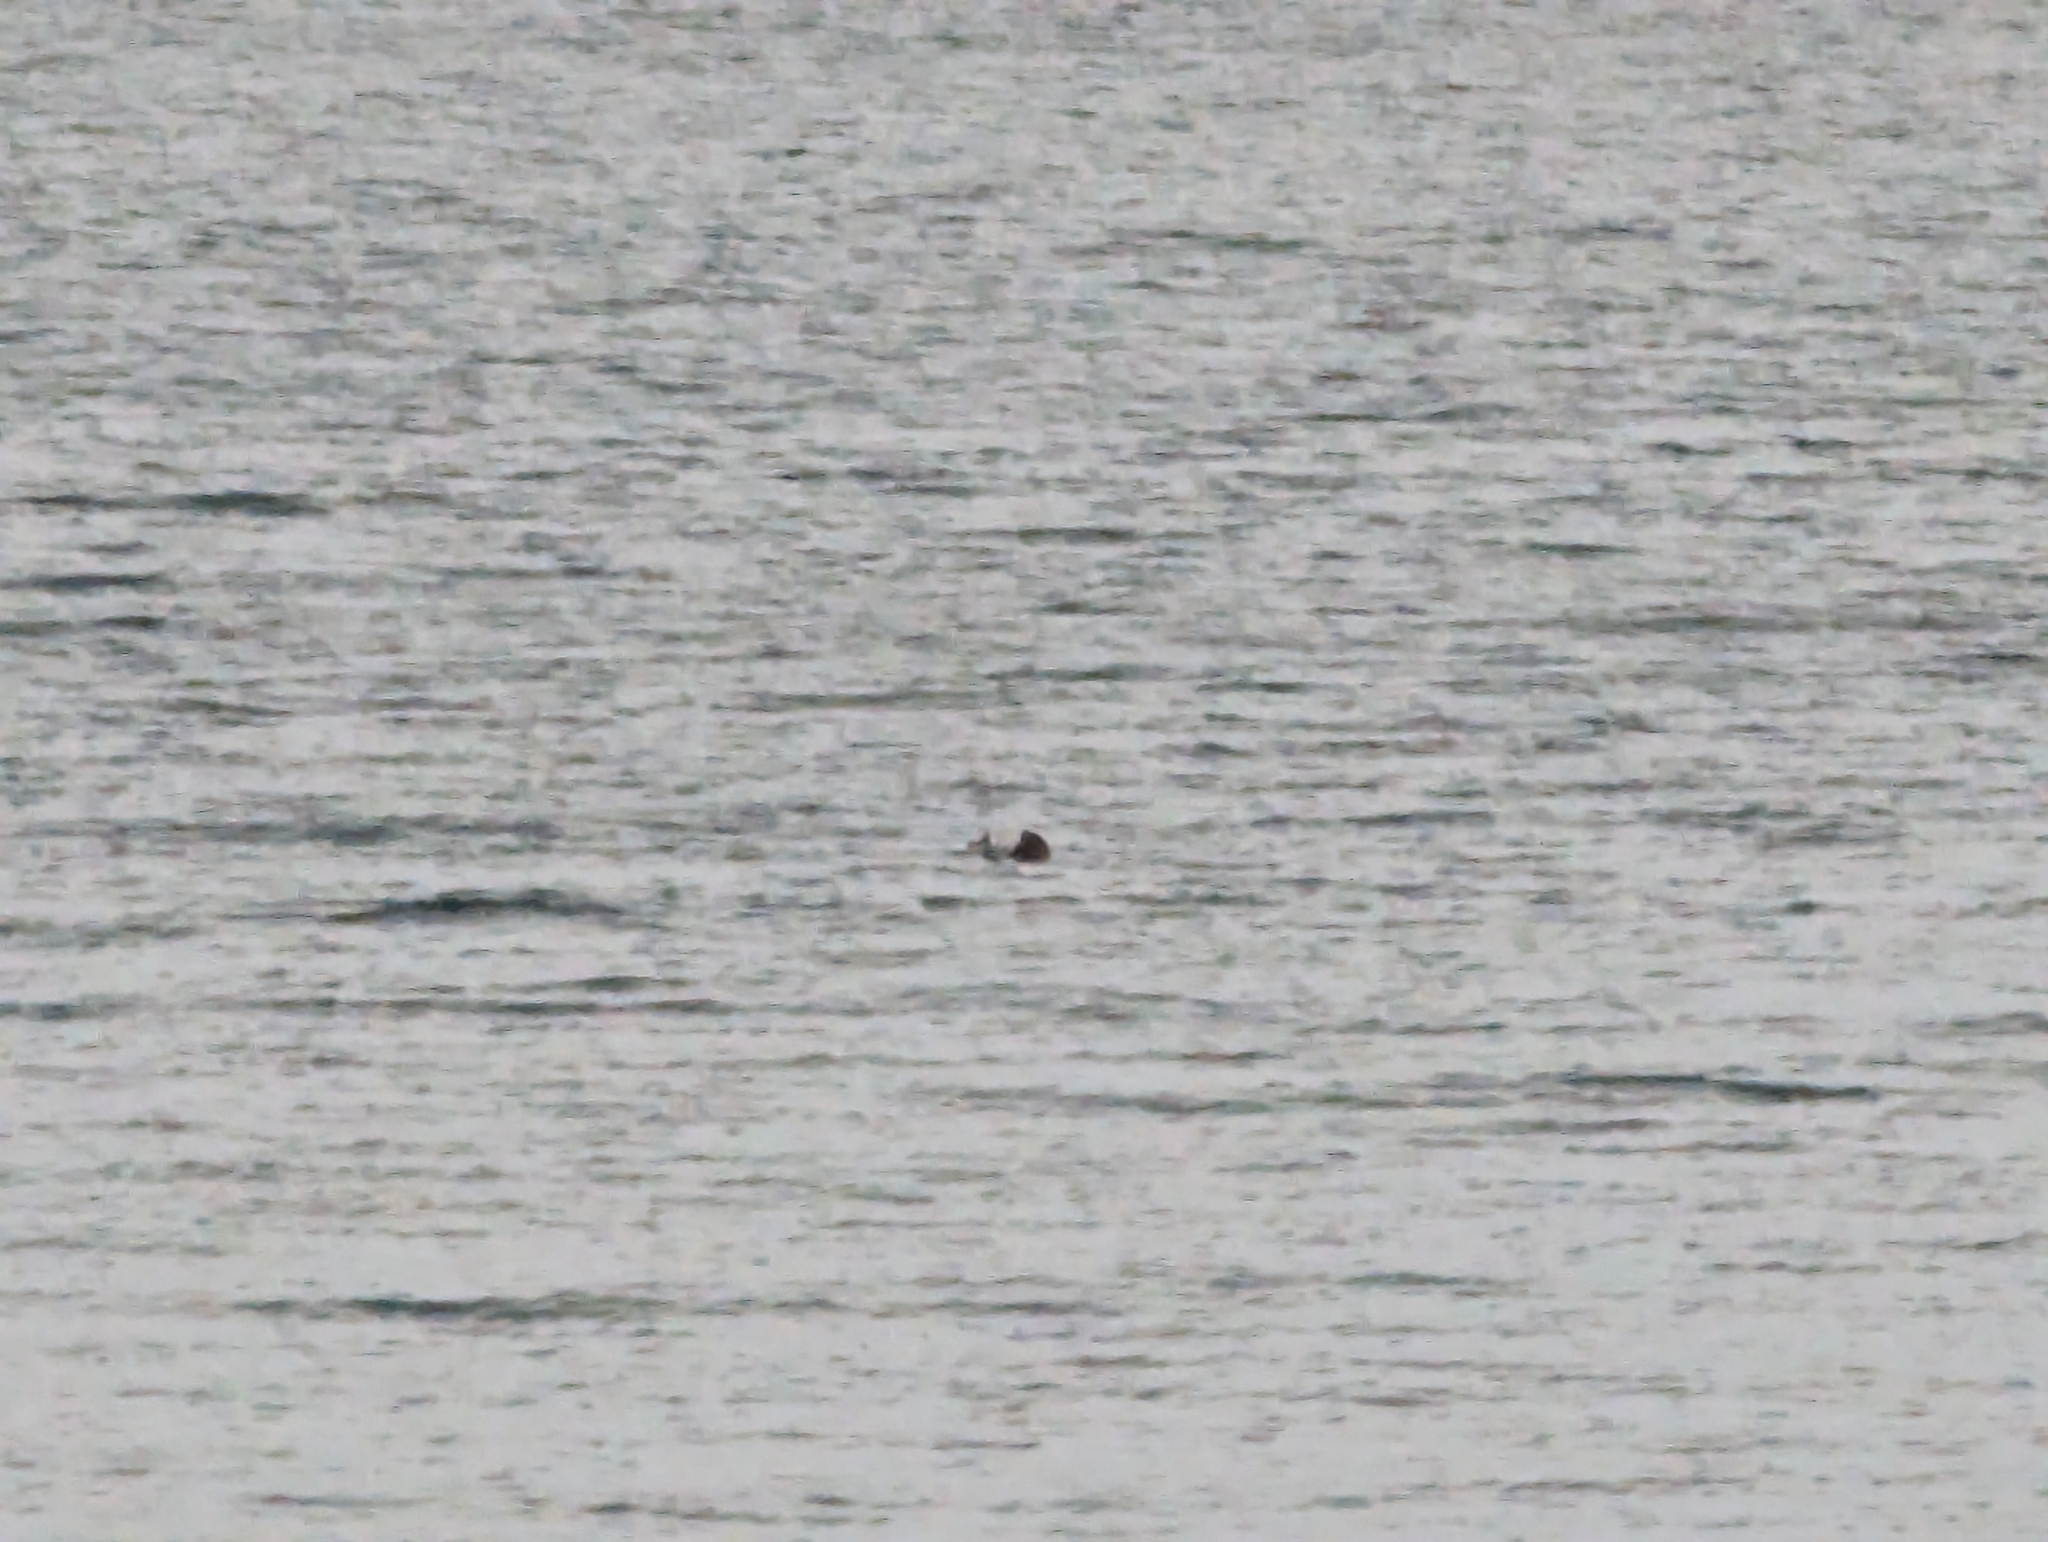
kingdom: Animalia
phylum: Chordata
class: Mammalia
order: Carnivora
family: Mustelidae
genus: Enhydra
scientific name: Enhydra lutris
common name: Sea otter
